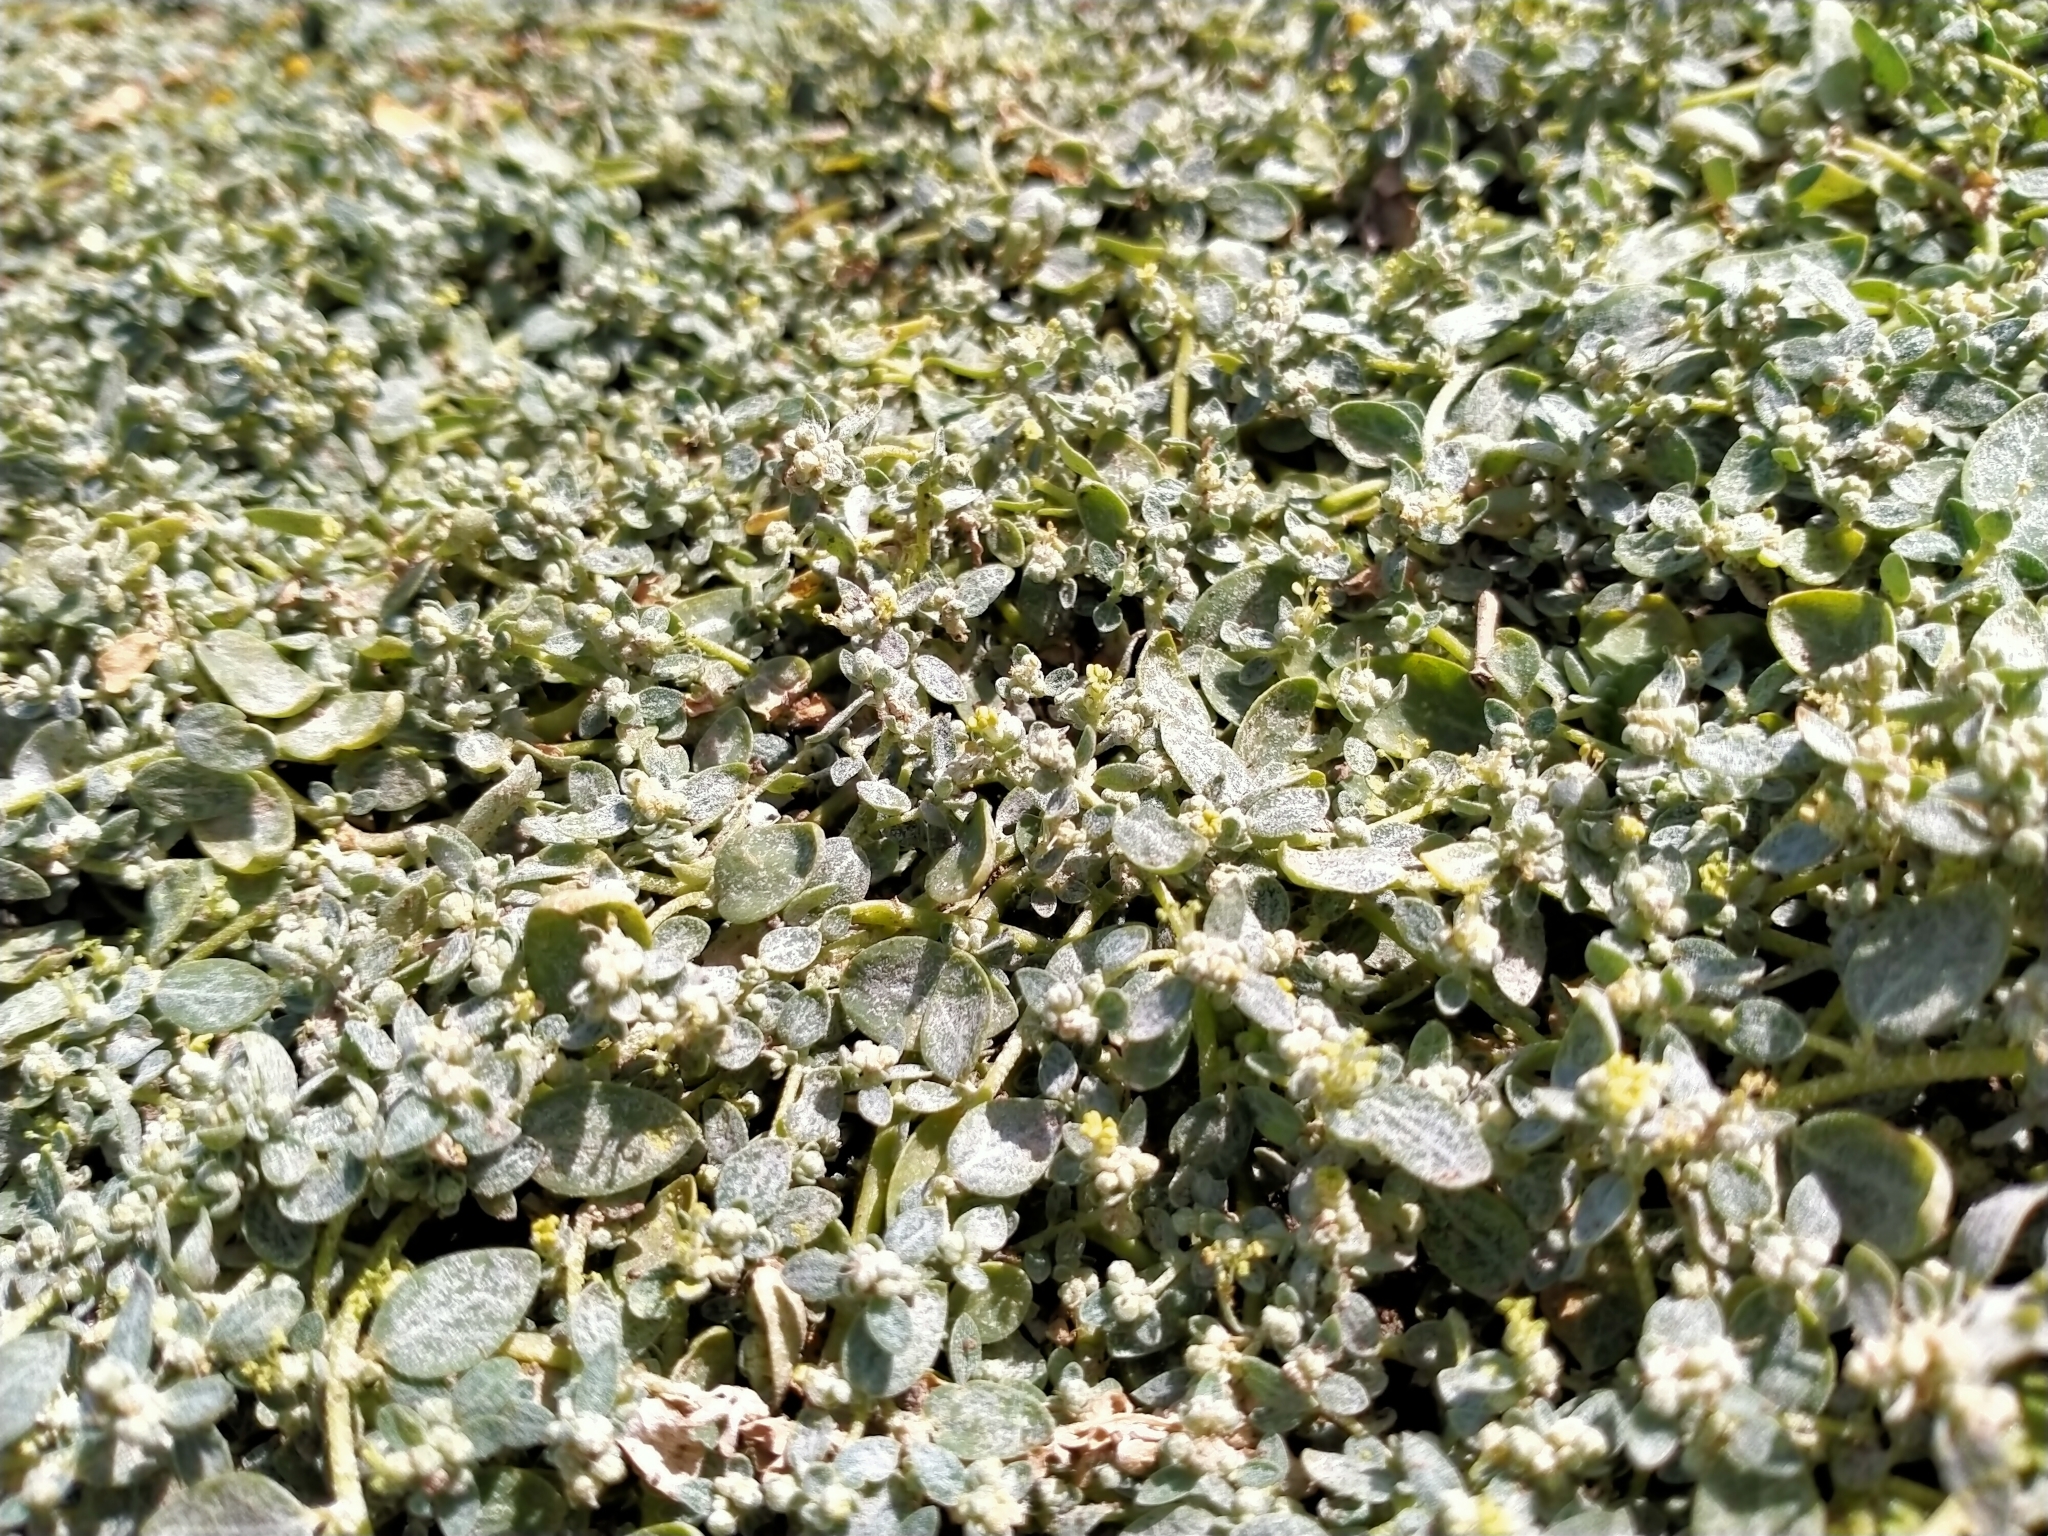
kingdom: Plantae
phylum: Tracheophyta
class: Magnoliopsida
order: Caryophyllales
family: Amaranthaceae
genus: Atriplex
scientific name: Atriplex buchananii
